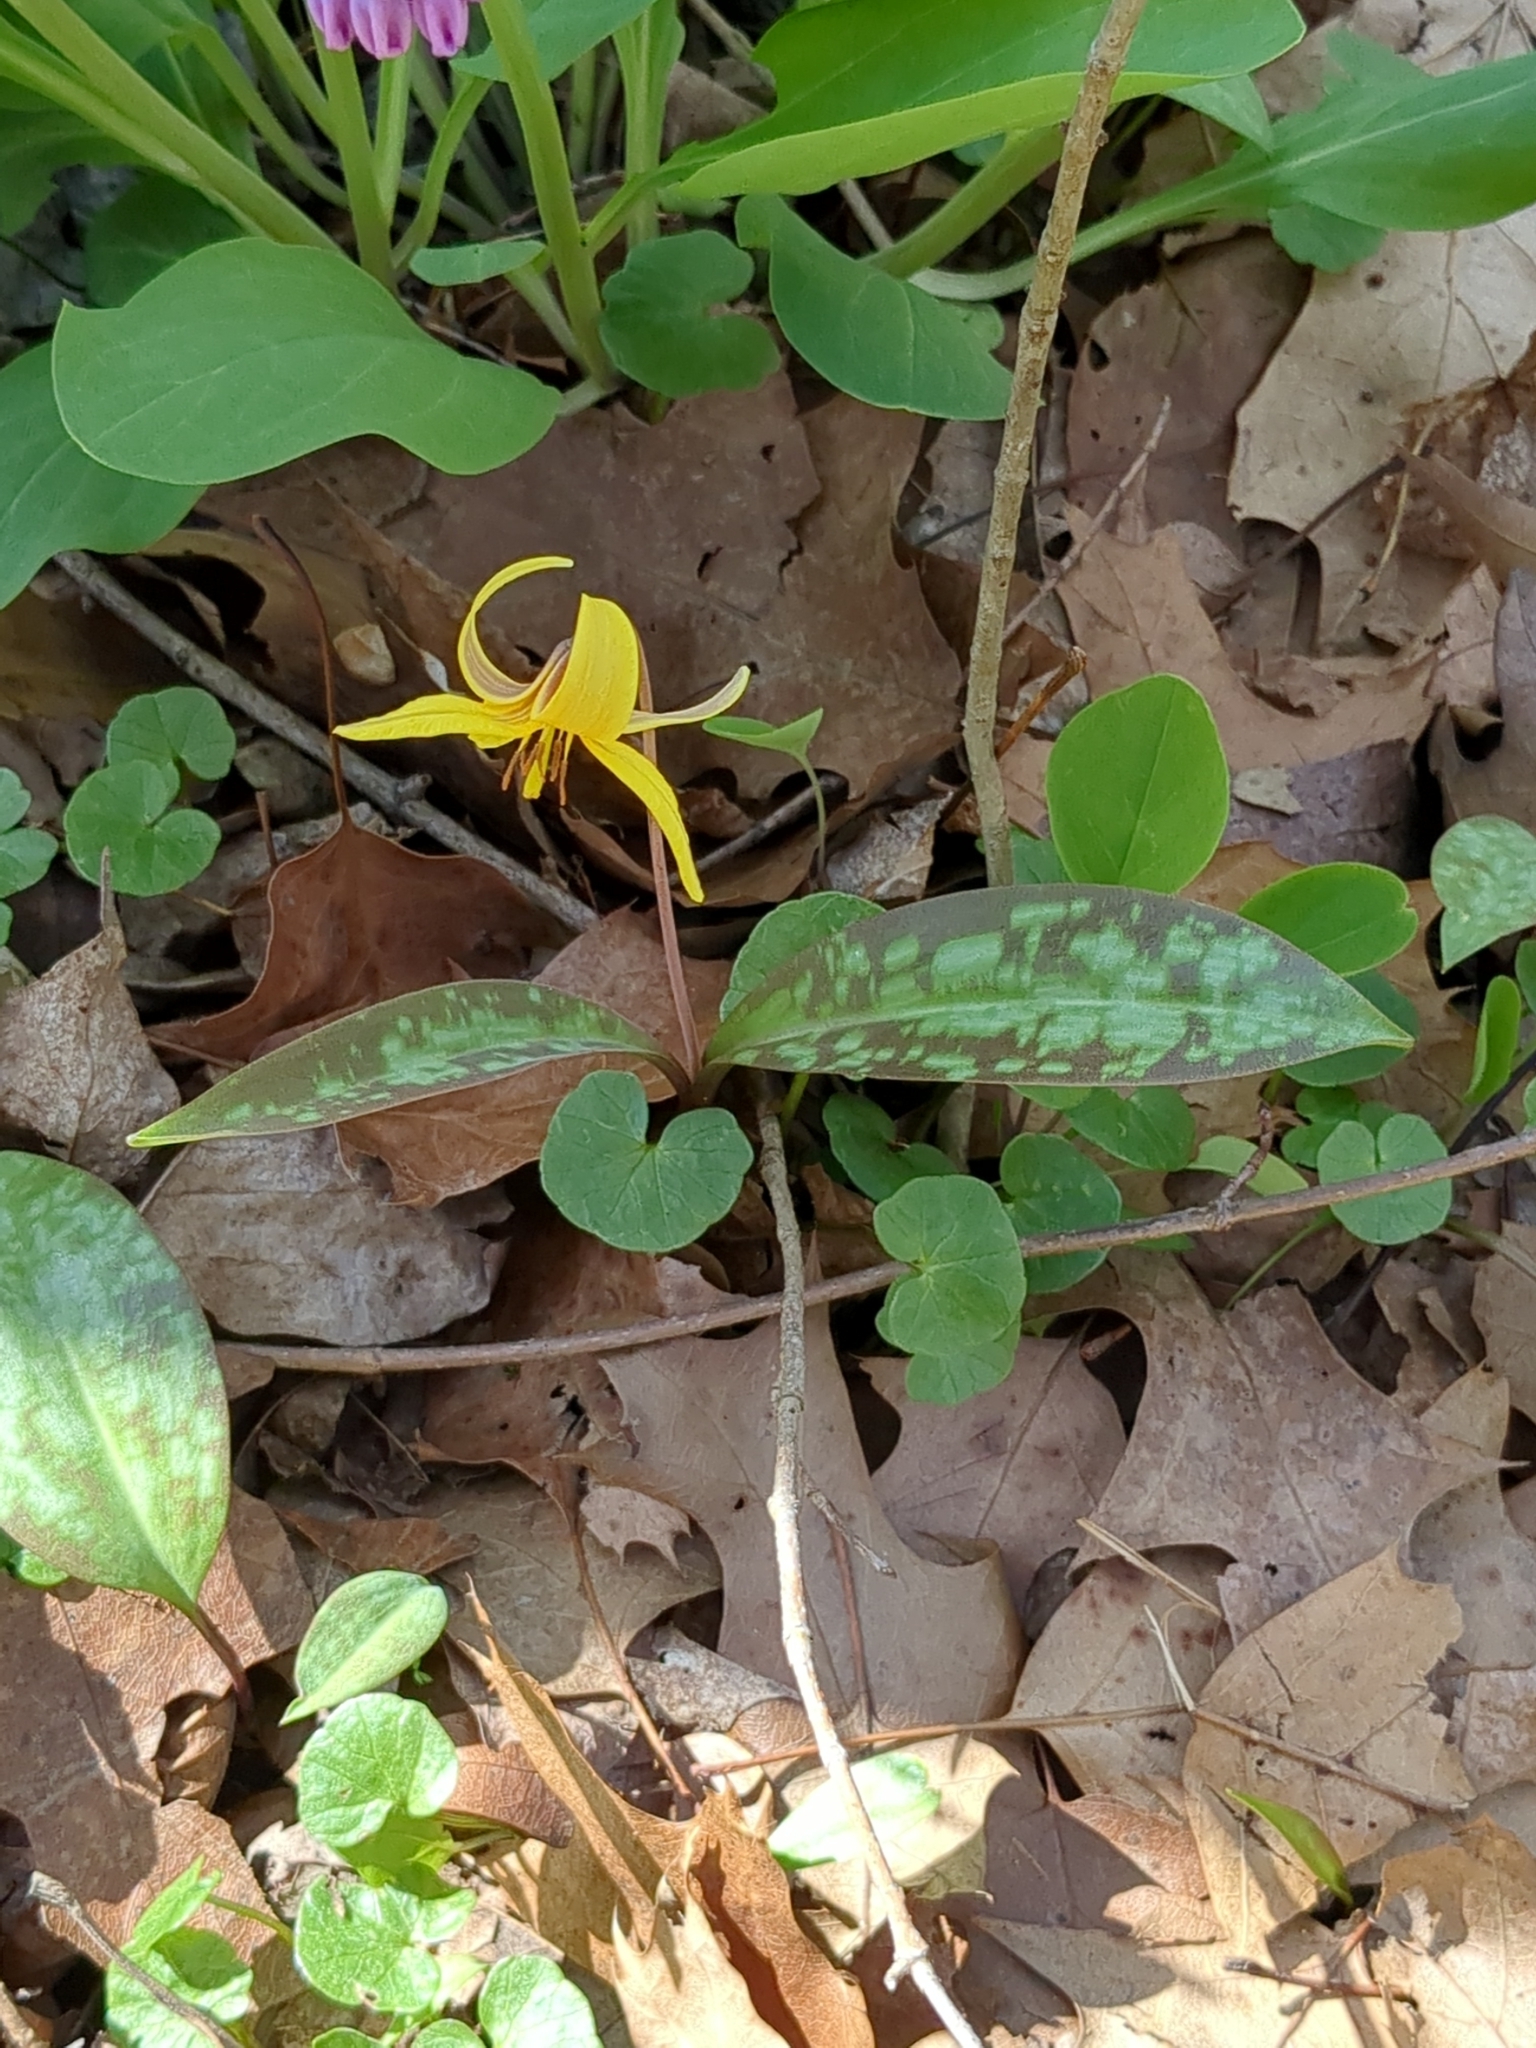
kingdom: Plantae
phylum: Tracheophyta
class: Liliopsida
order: Liliales
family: Liliaceae
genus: Erythronium
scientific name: Erythronium americanum
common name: Yellow adder's-tongue
